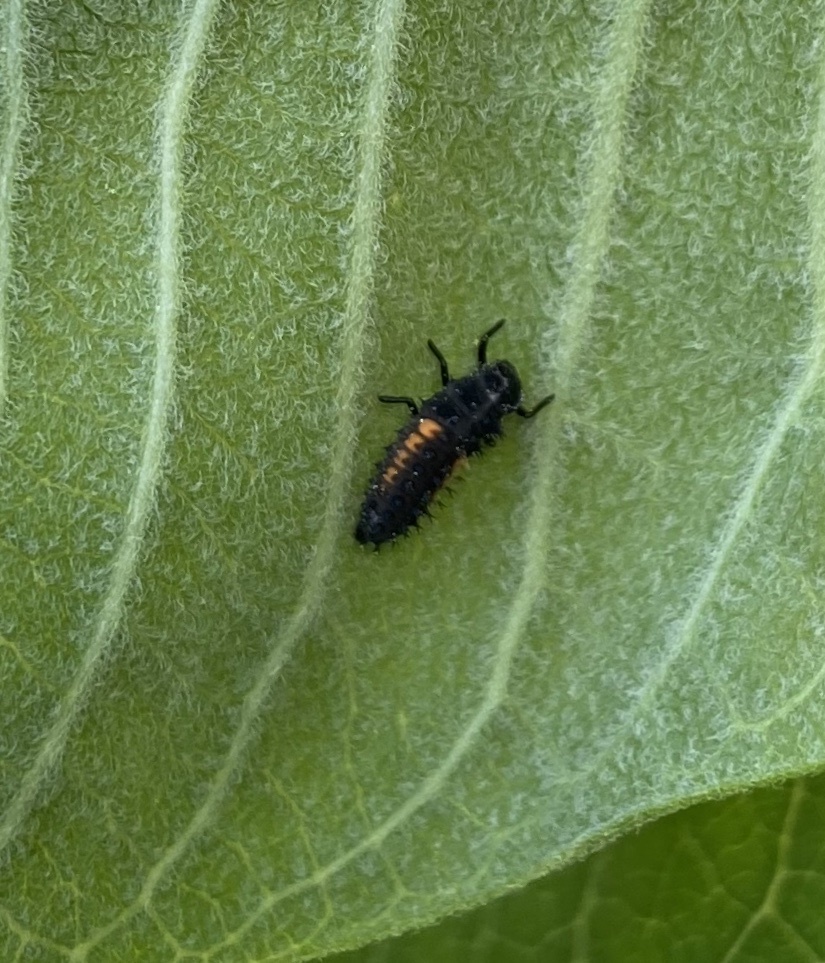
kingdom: Animalia
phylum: Arthropoda
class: Insecta
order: Coleoptera
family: Coccinellidae
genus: Harmonia
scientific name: Harmonia axyridis
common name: Harlequin ladybird
